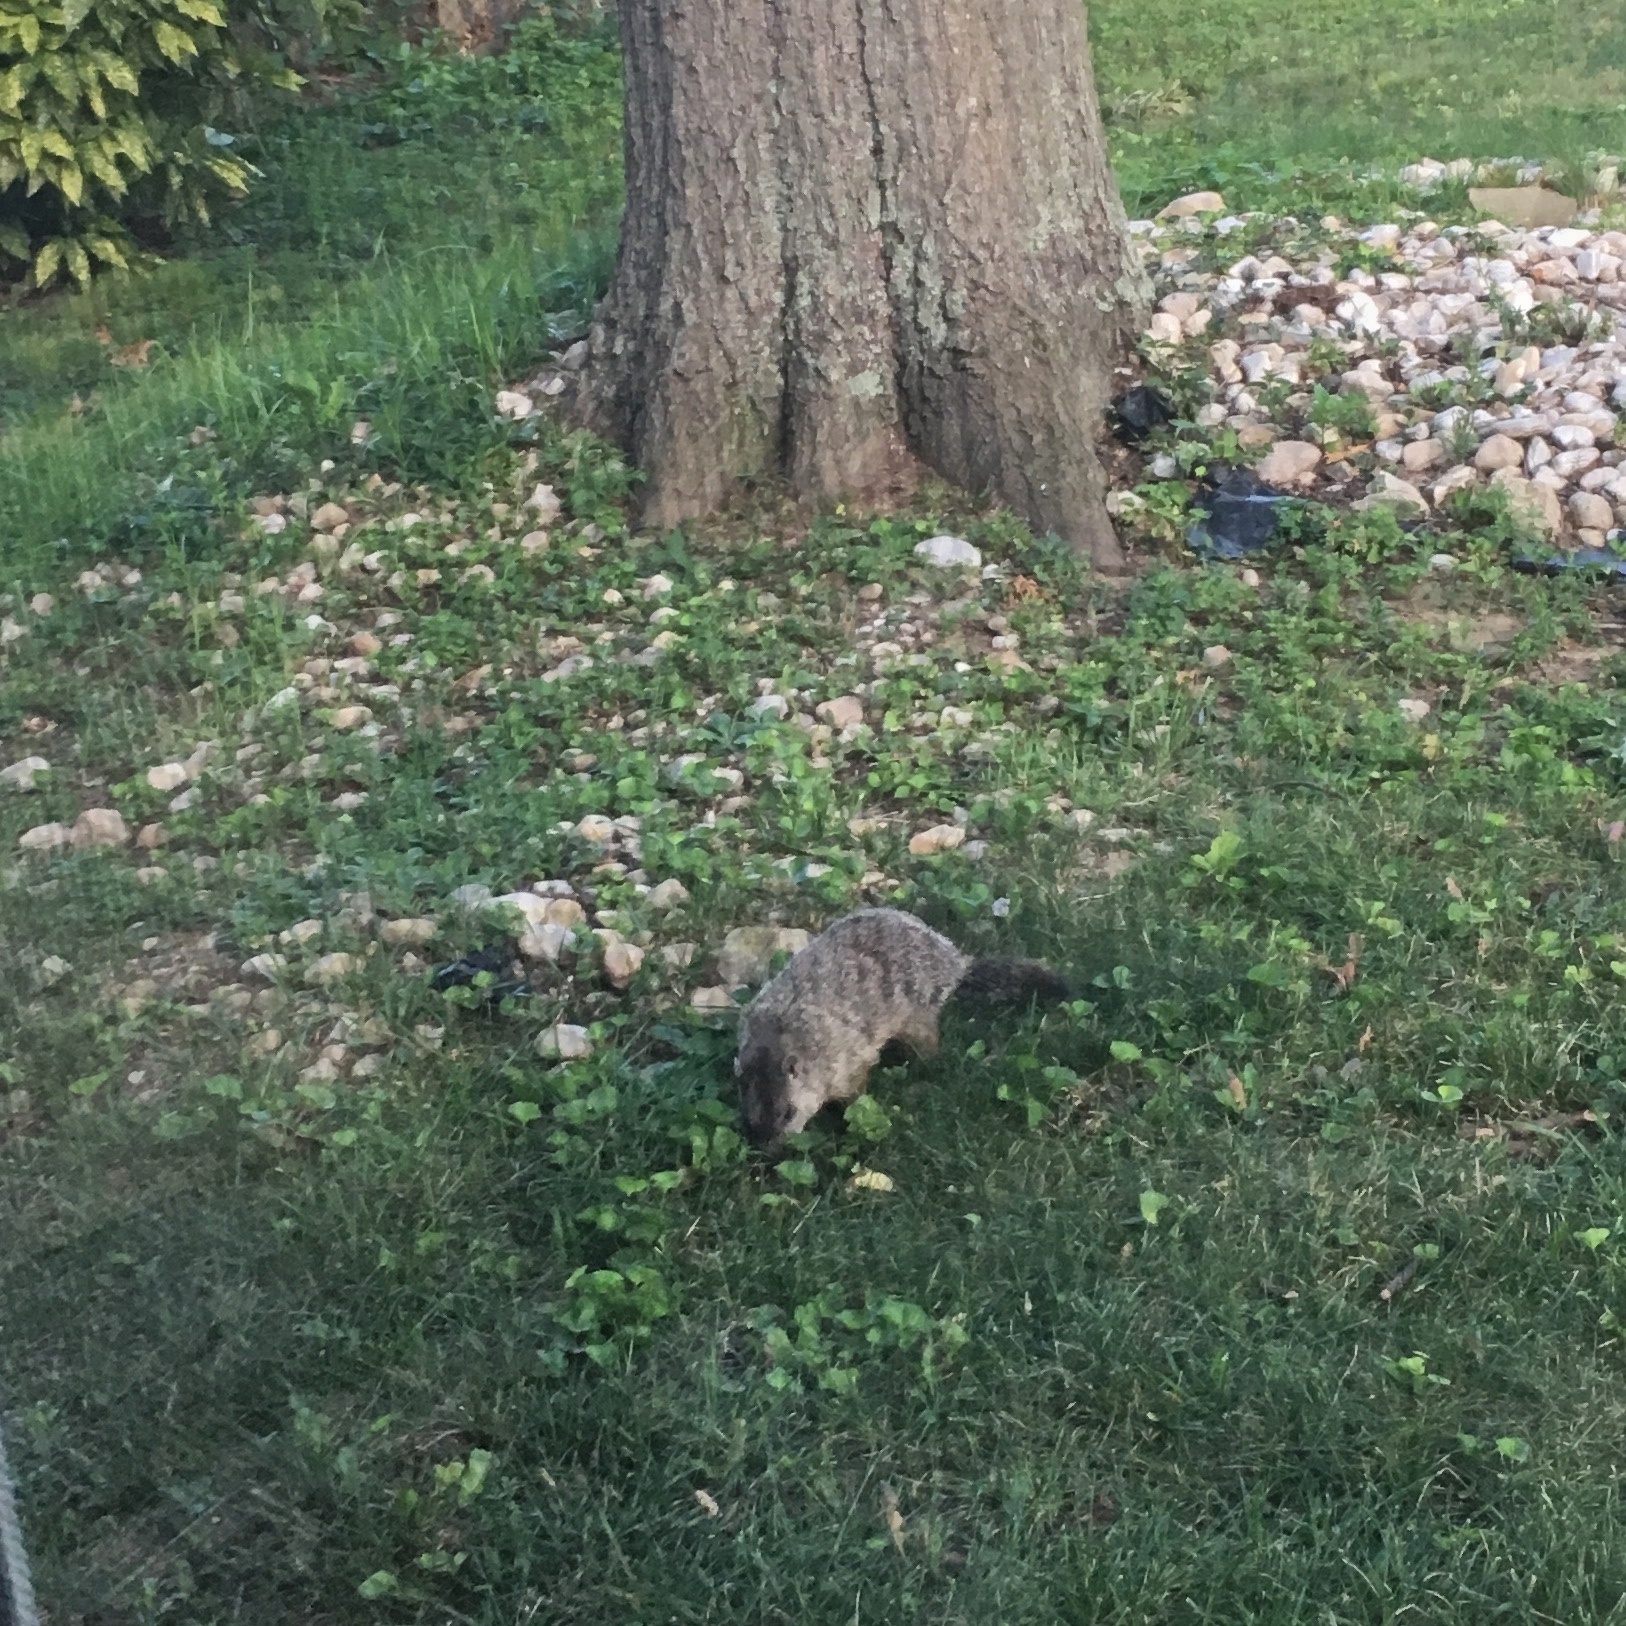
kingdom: Animalia
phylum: Chordata
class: Mammalia
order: Rodentia
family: Sciuridae
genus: Marmota
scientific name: Marmota monax
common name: Groundhog
